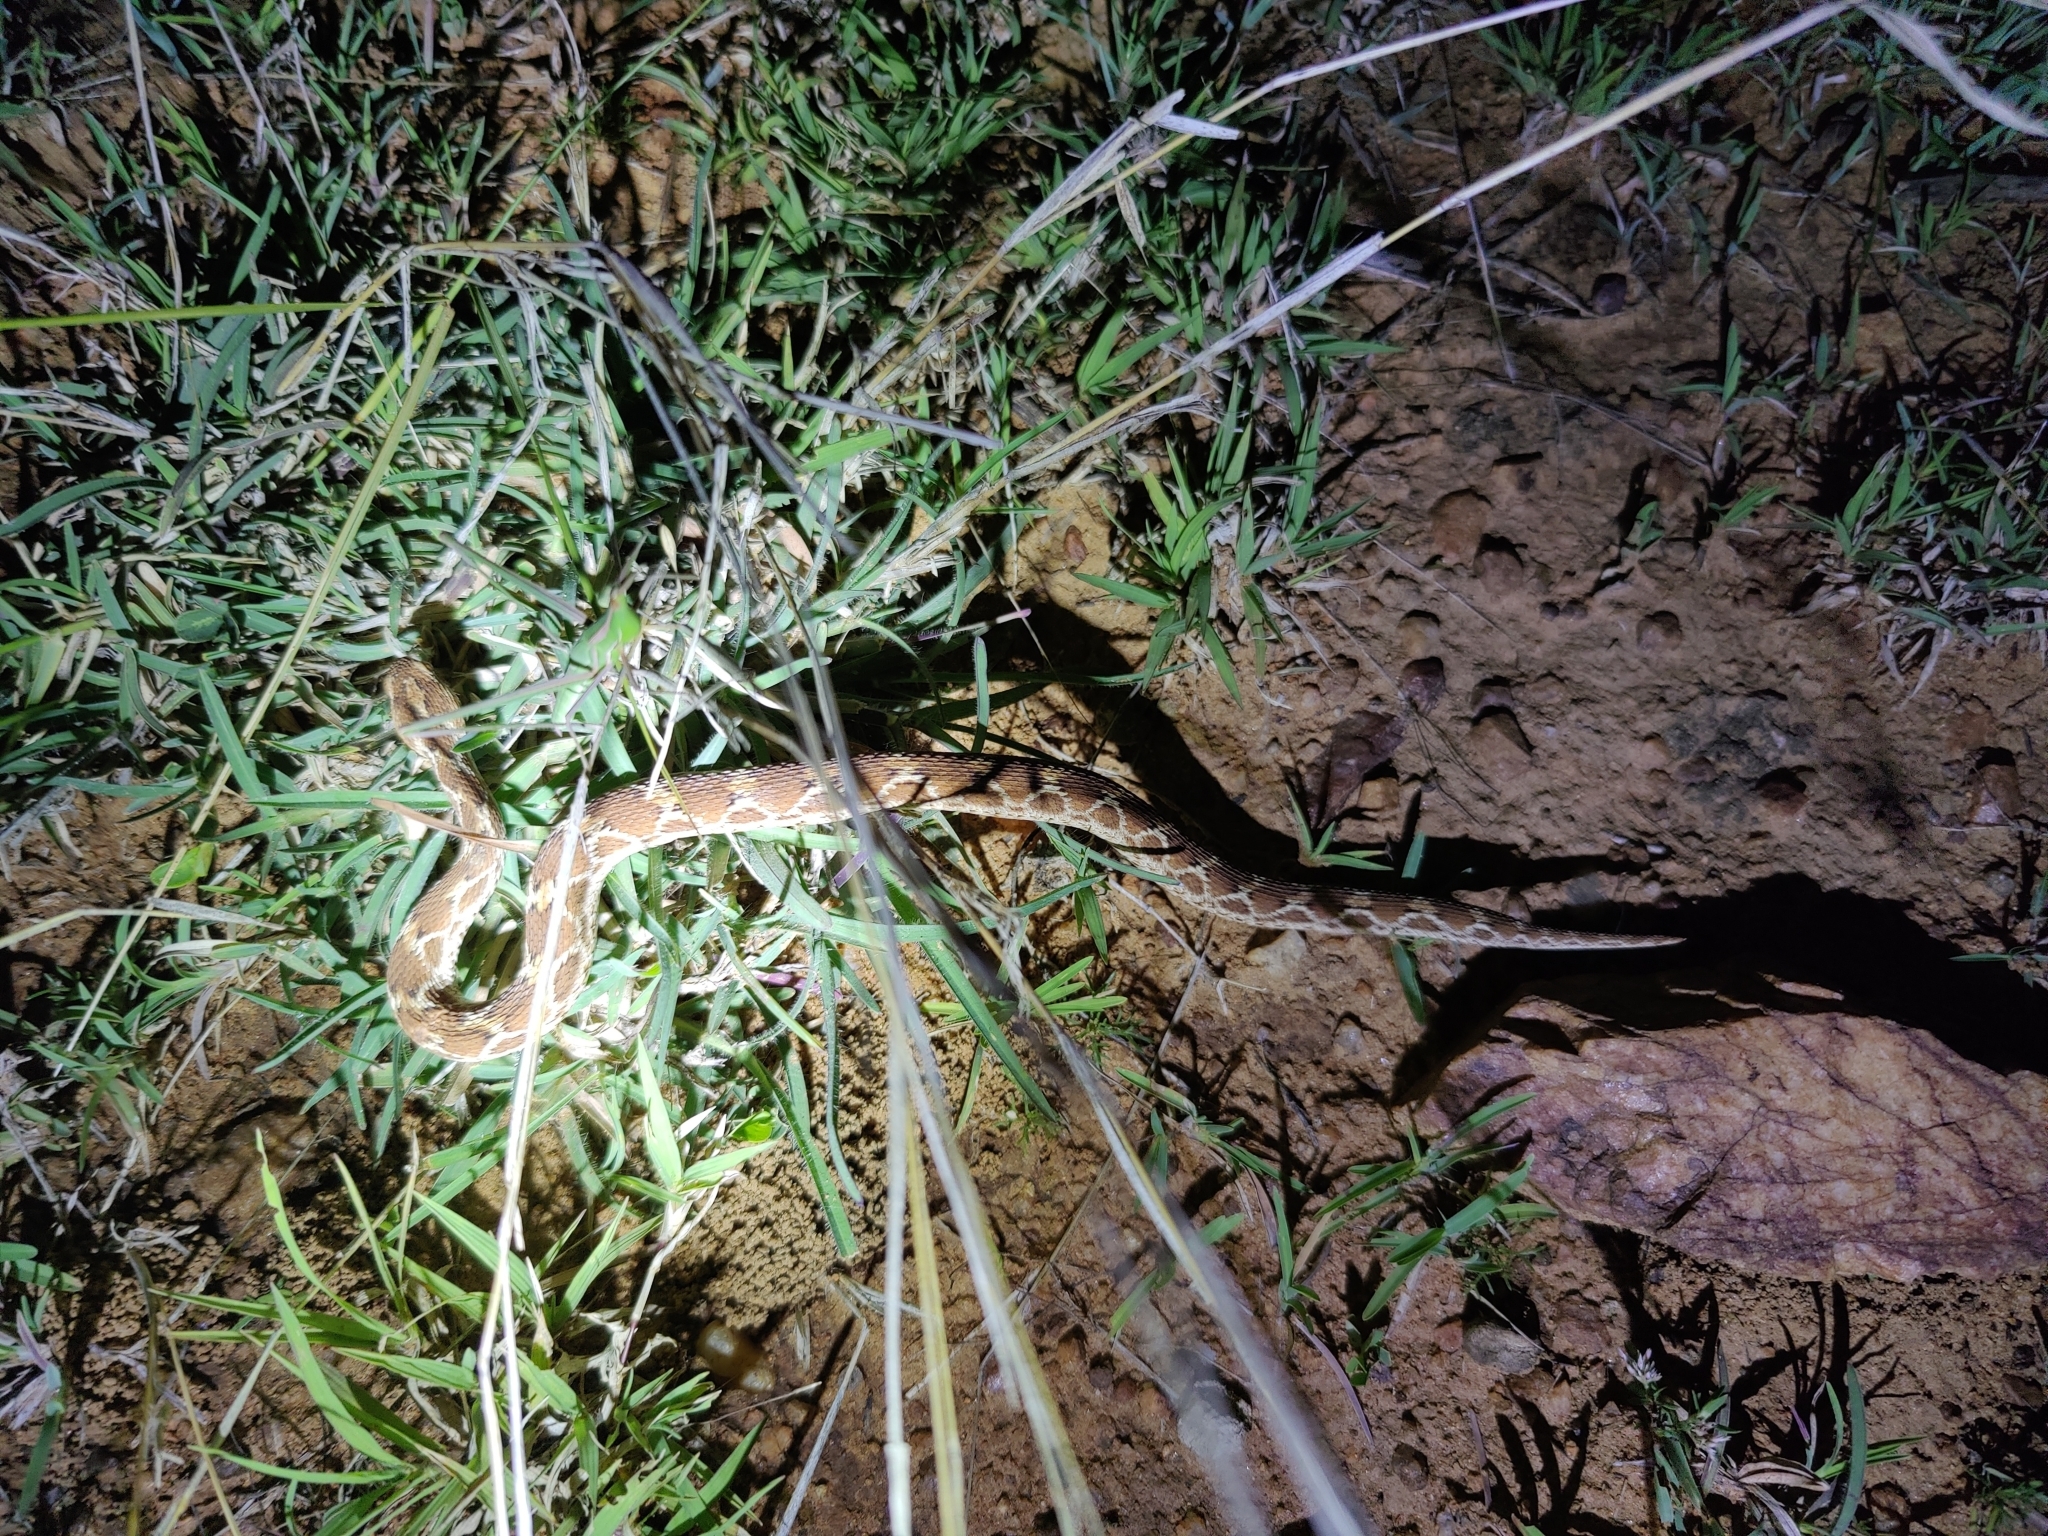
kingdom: Animalia
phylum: Chordata
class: Squamata
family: Viperidae
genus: Echis
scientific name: Echis carinatus
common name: Saw-scaled viper
